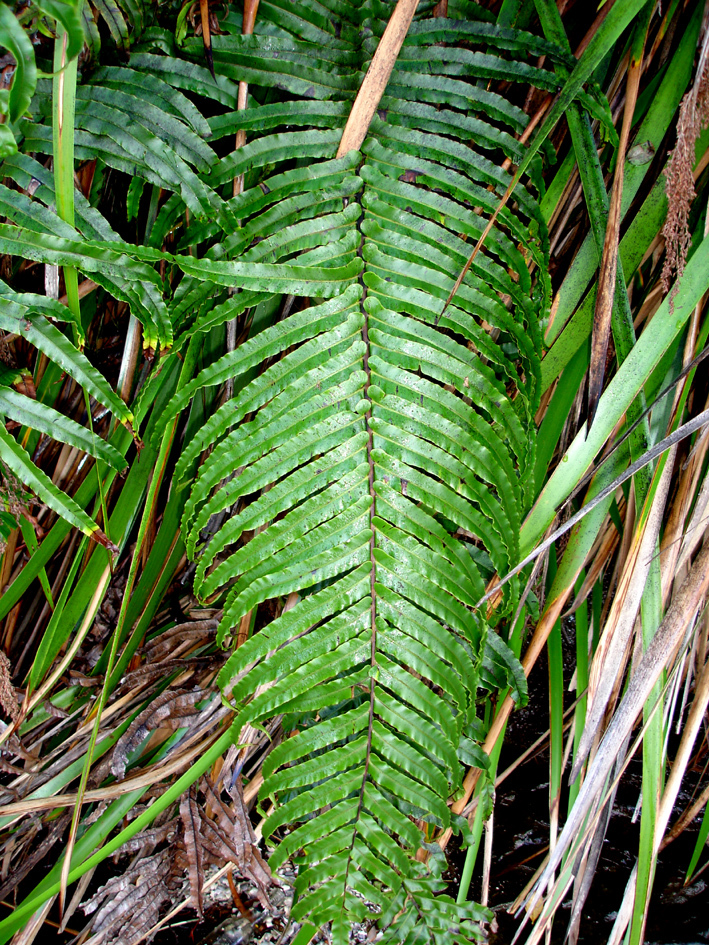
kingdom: Plantae
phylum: Tracheophyta
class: Polypodiopsida
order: Polypodiales
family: Blechnaceae
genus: Parablechnum
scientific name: Parablechnum triangularifolium
